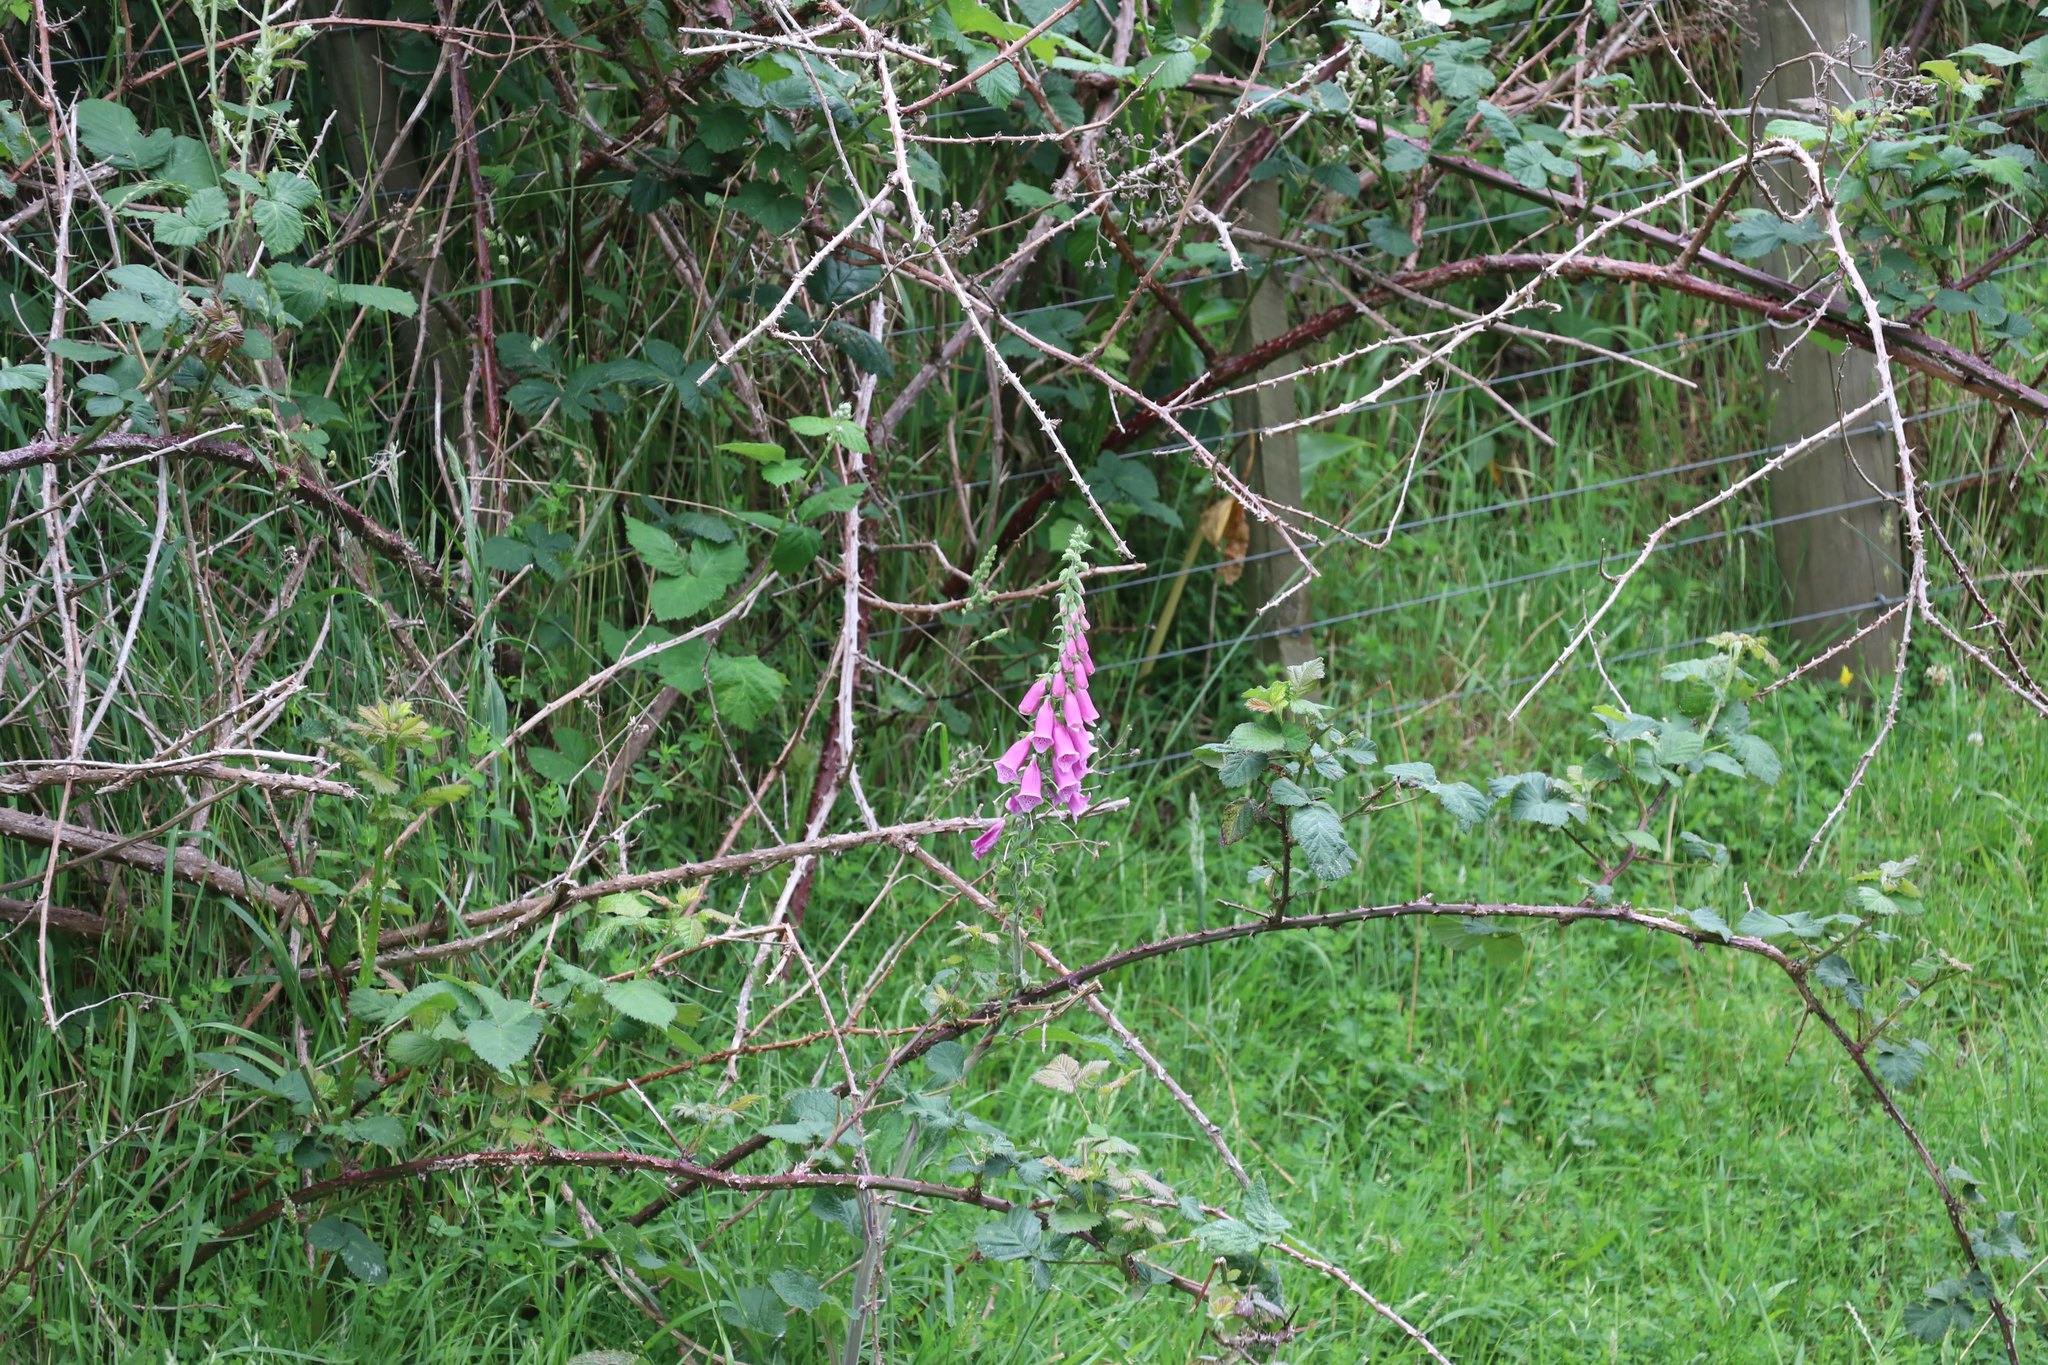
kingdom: Plantae
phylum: Tracheophyta
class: Magnoliopsida
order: Lamiales
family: Plantaginaceae
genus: Digitalis
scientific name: Digitalis purpurea
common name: Foxglove
